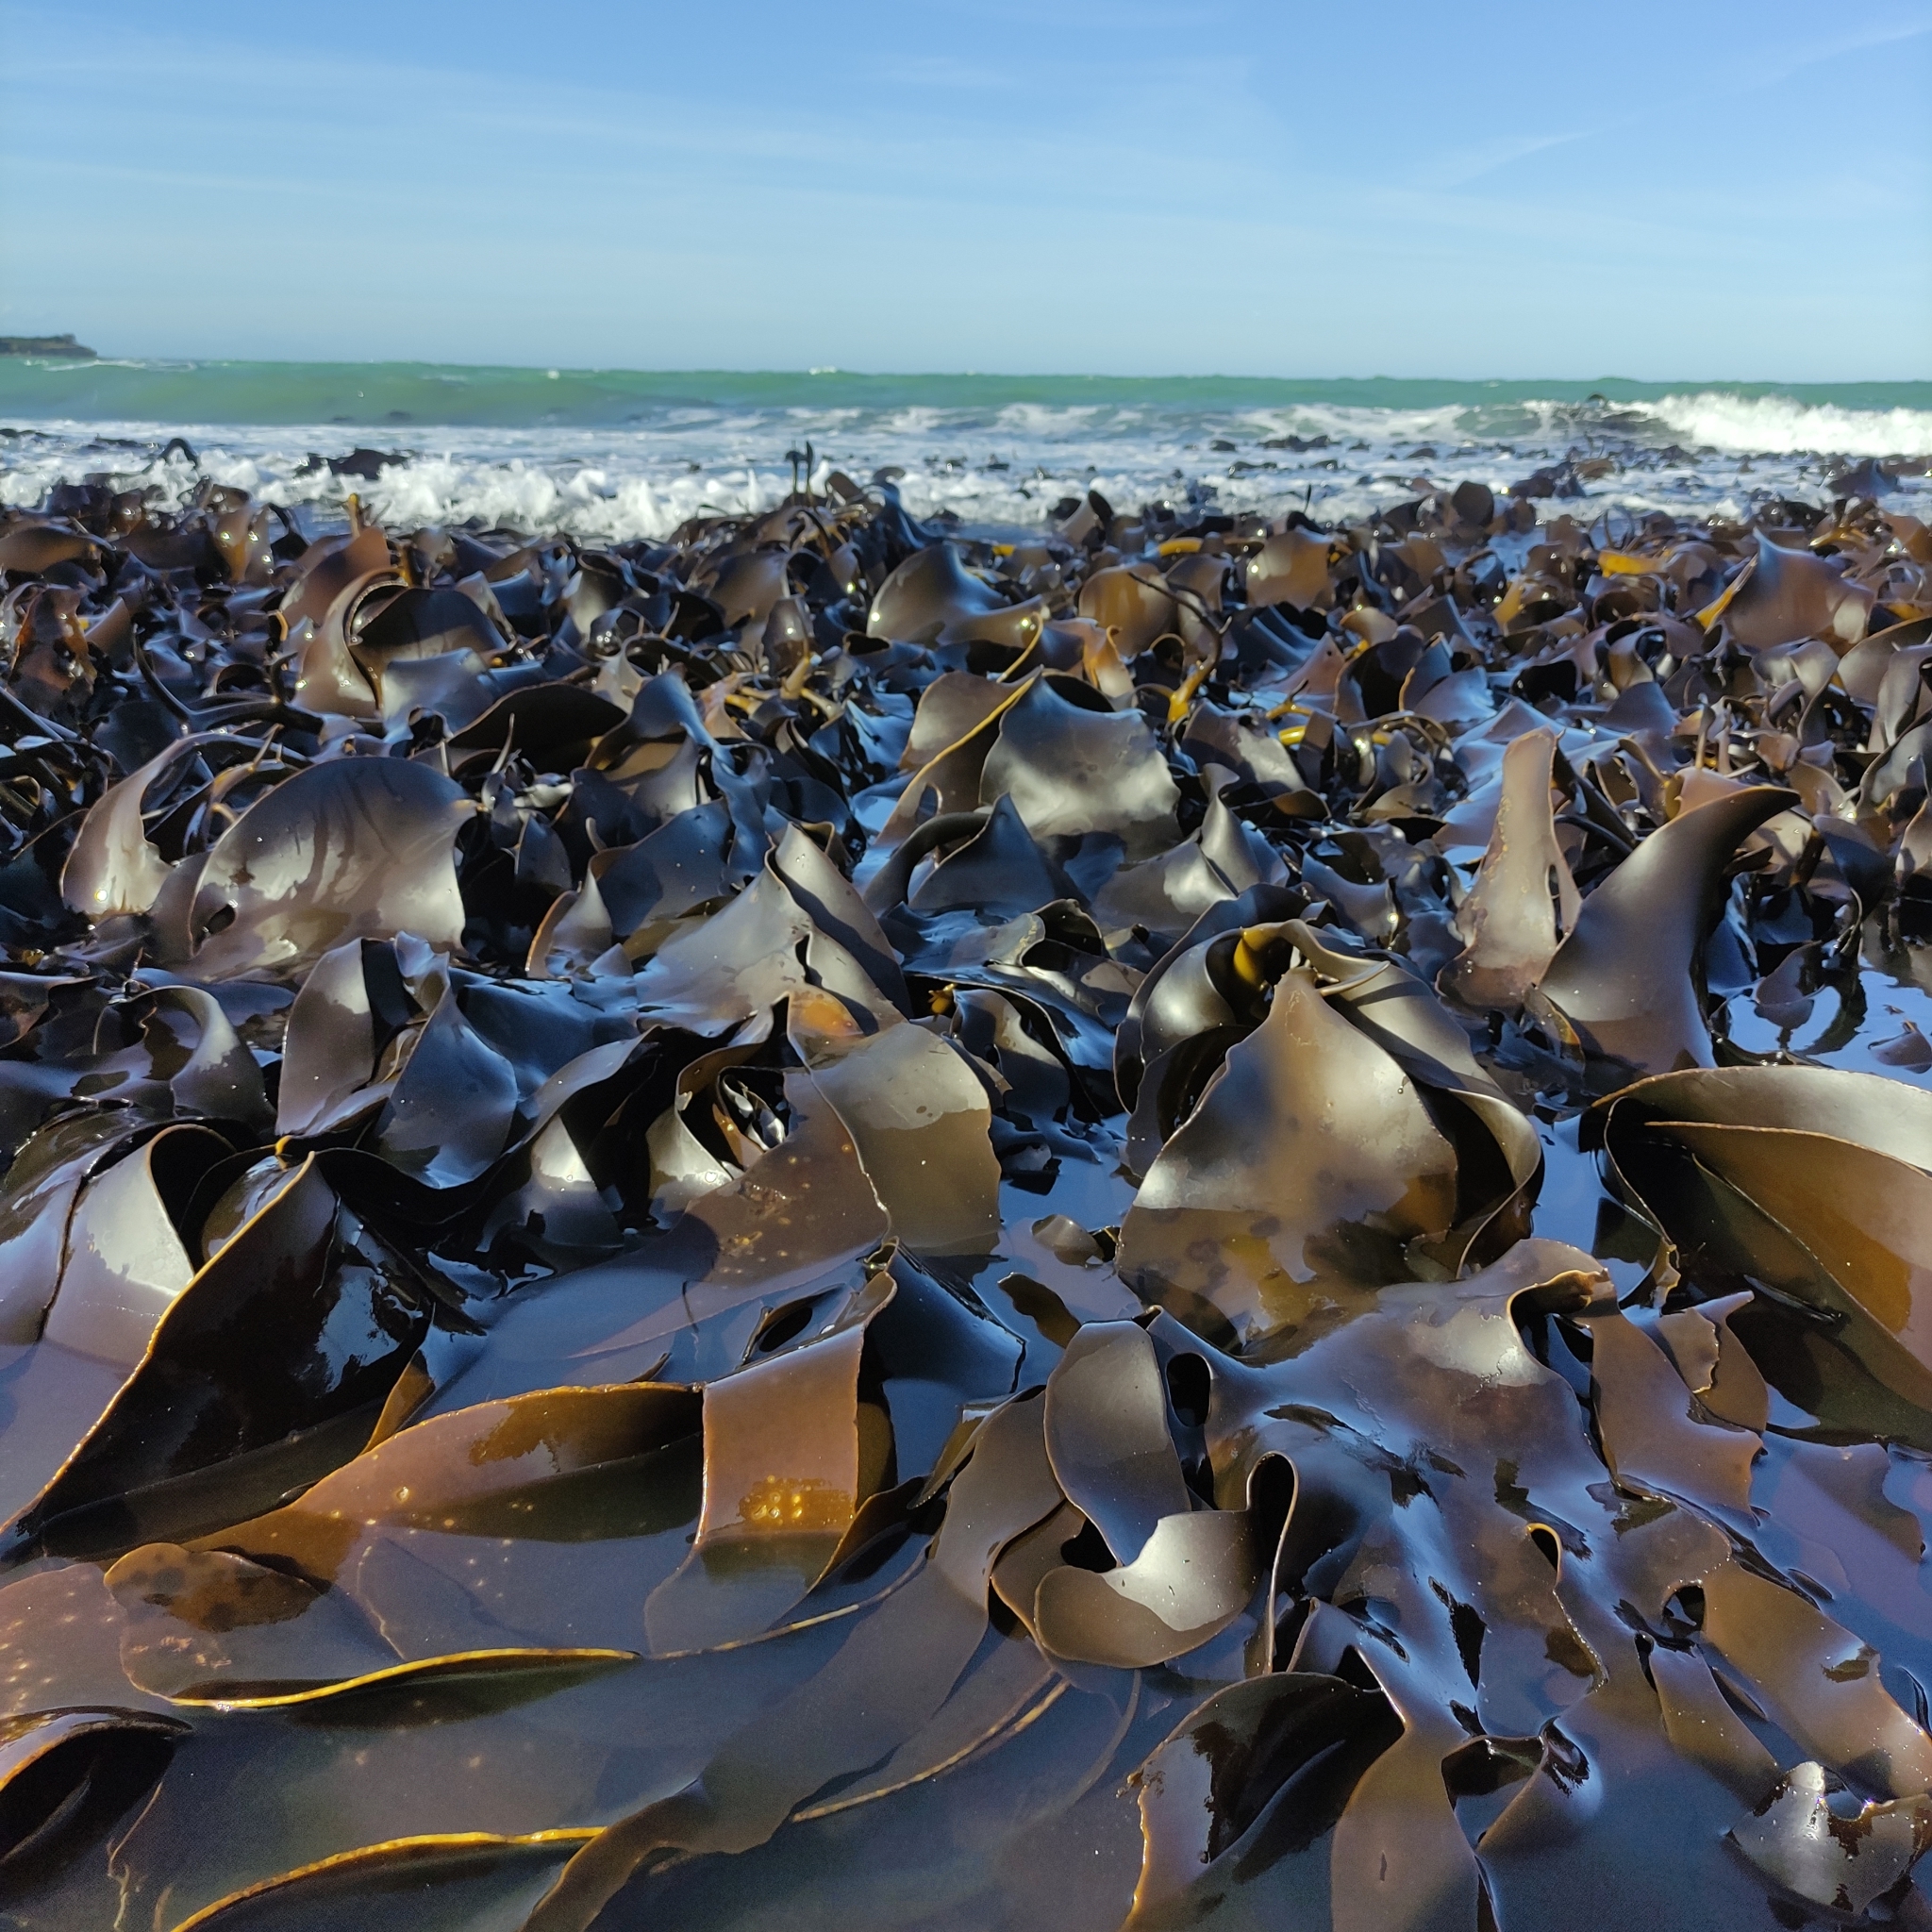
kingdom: Chromista
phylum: Ochrophyta
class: Phaeophyceae
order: Fucales
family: Durvillaeaceae
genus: Durvillaea
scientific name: Durvillaea antarctica
